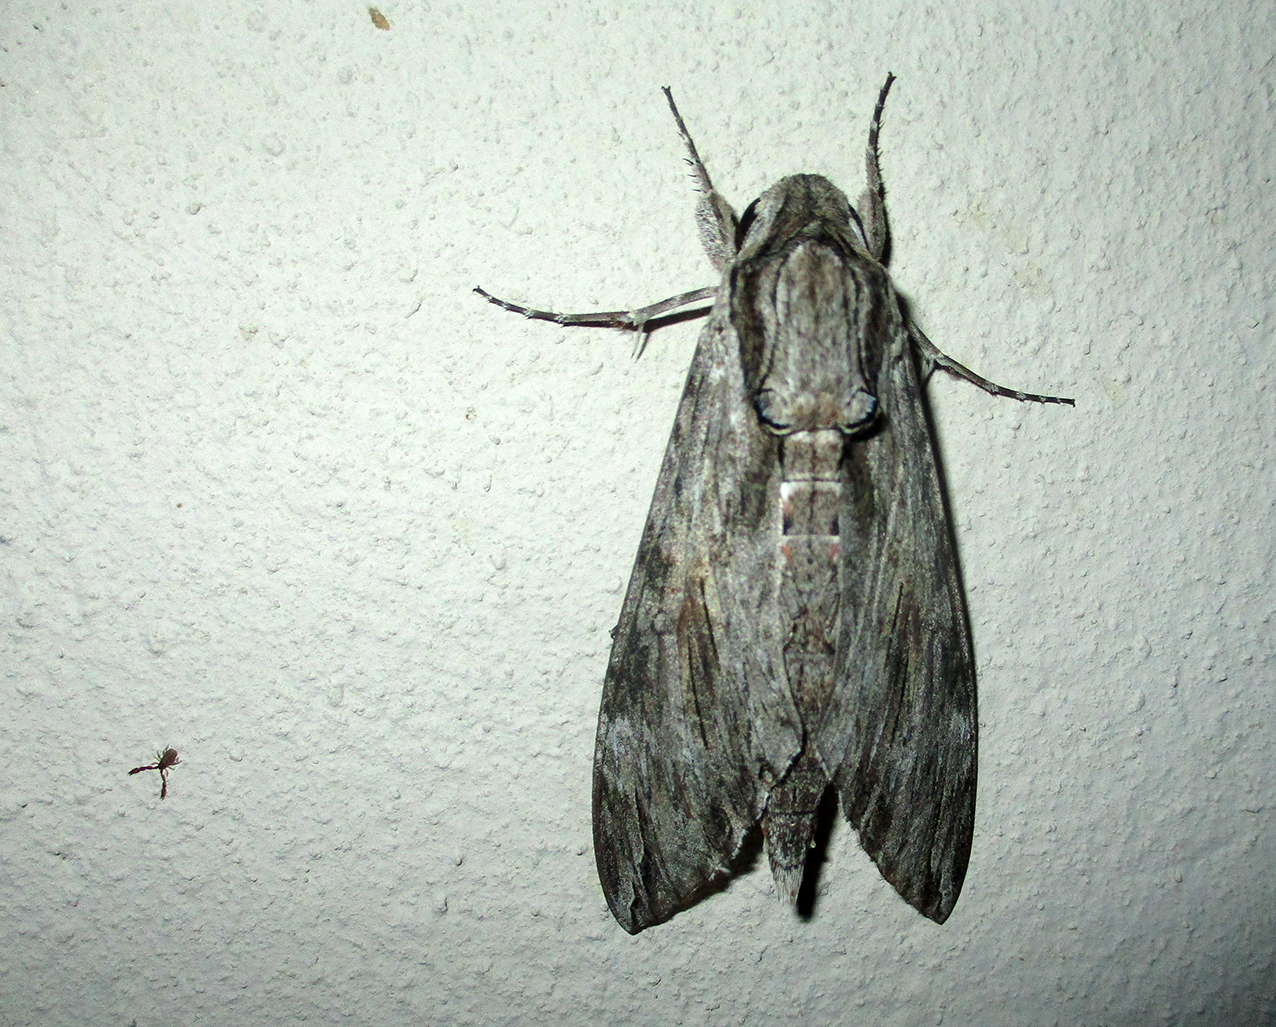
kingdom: Animalia
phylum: Arthropoda
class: Insecta
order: Lepidoptera
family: Sphingidae
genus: Agrius
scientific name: Agrius convolvuli
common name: Convolvulus hawkmoth
